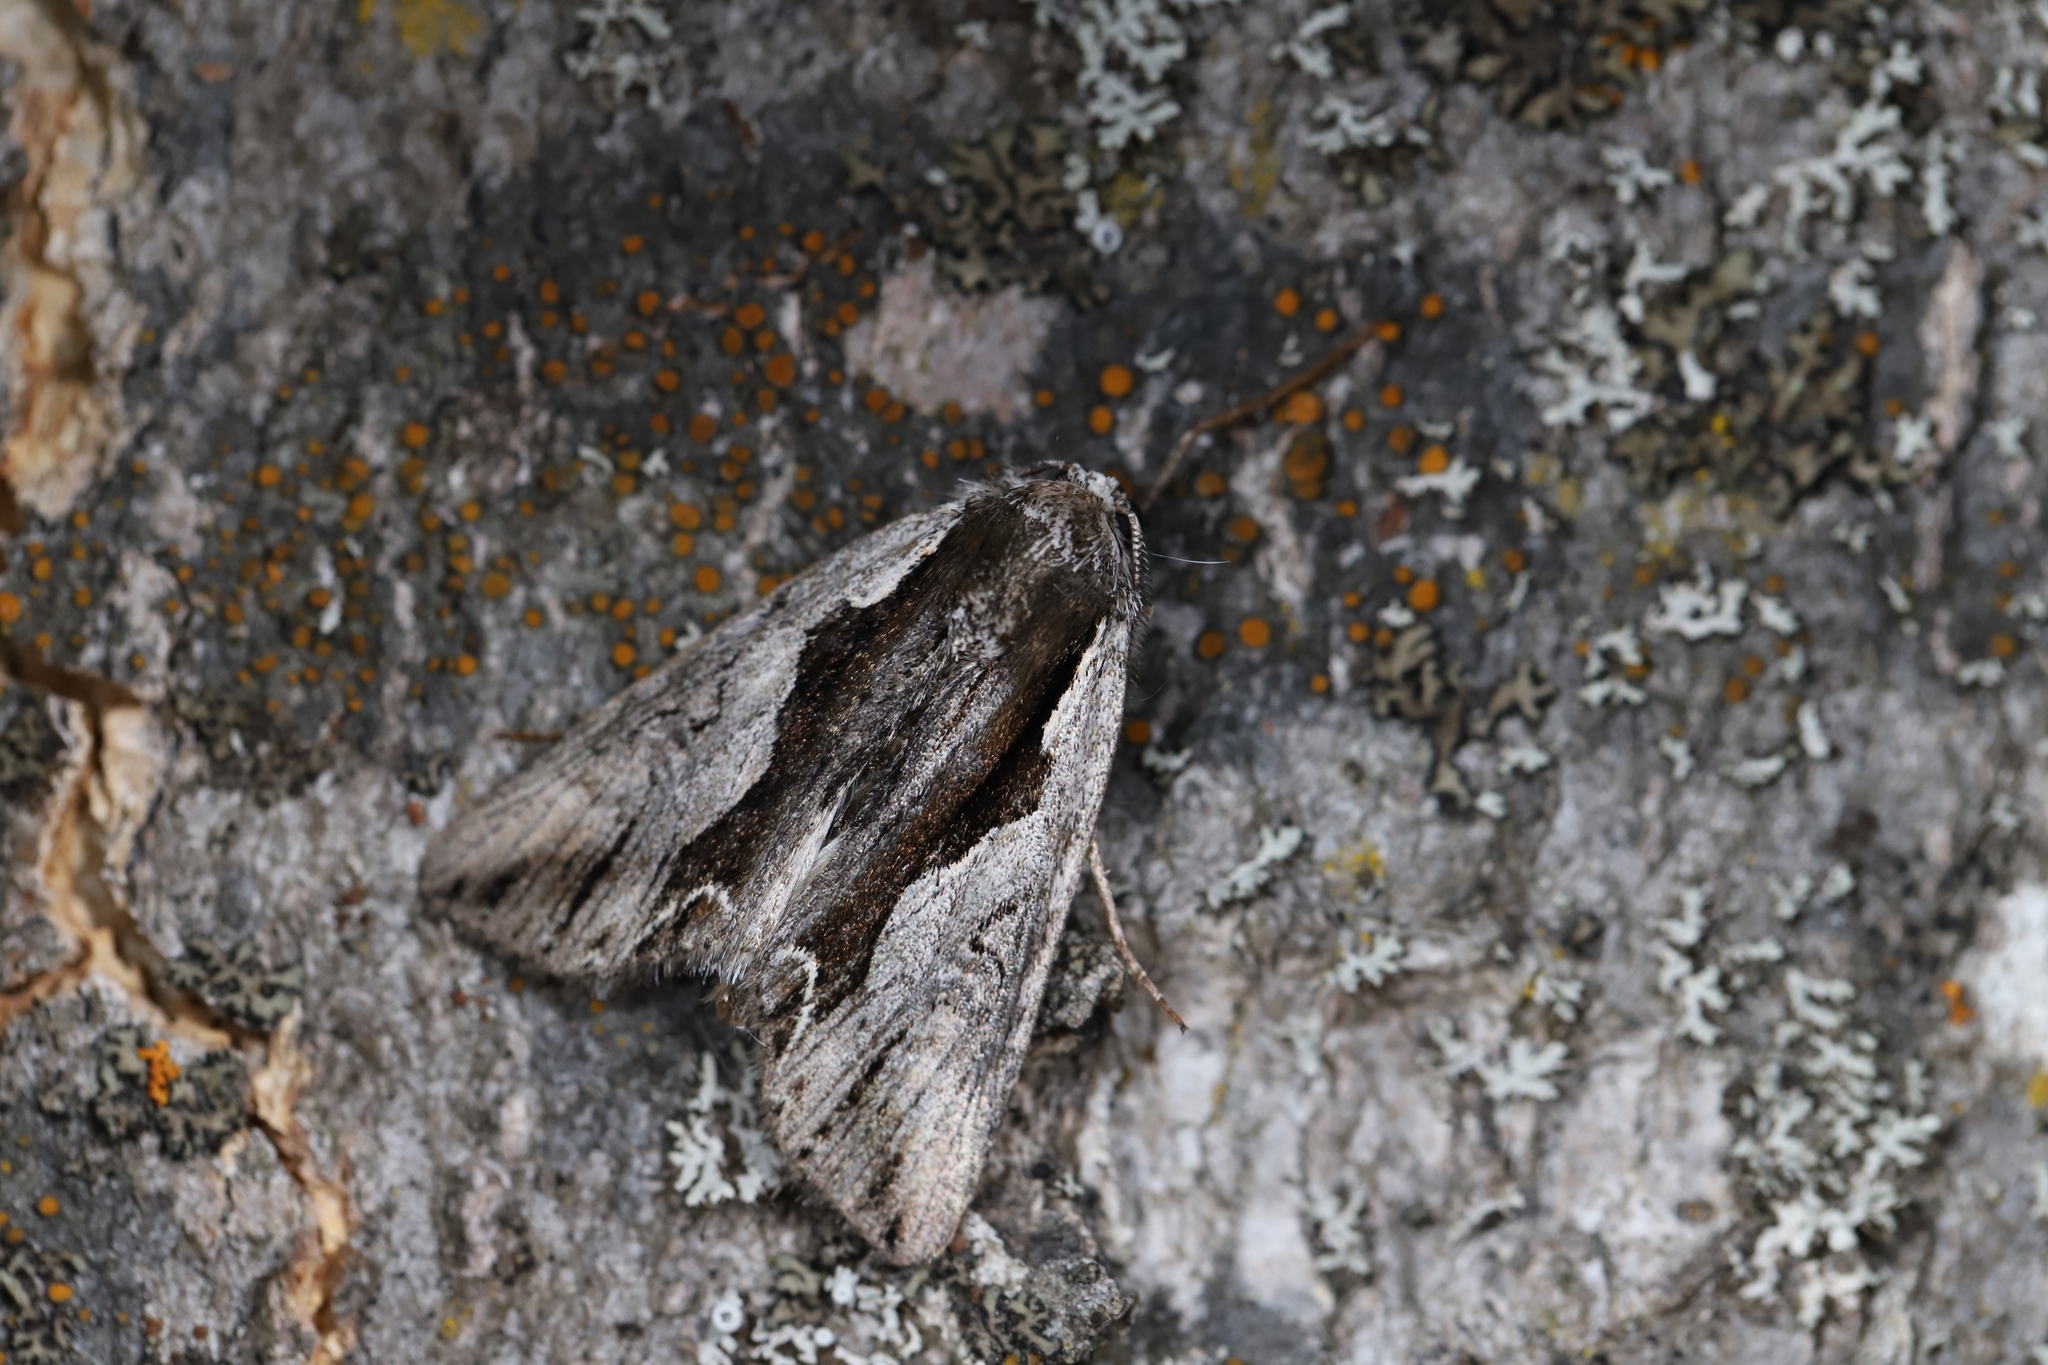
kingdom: Animalia
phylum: Arthropoda
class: Insecta
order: Lepidoptera
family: Noctuidae
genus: Calliergis
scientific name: Calliergis ramosa
